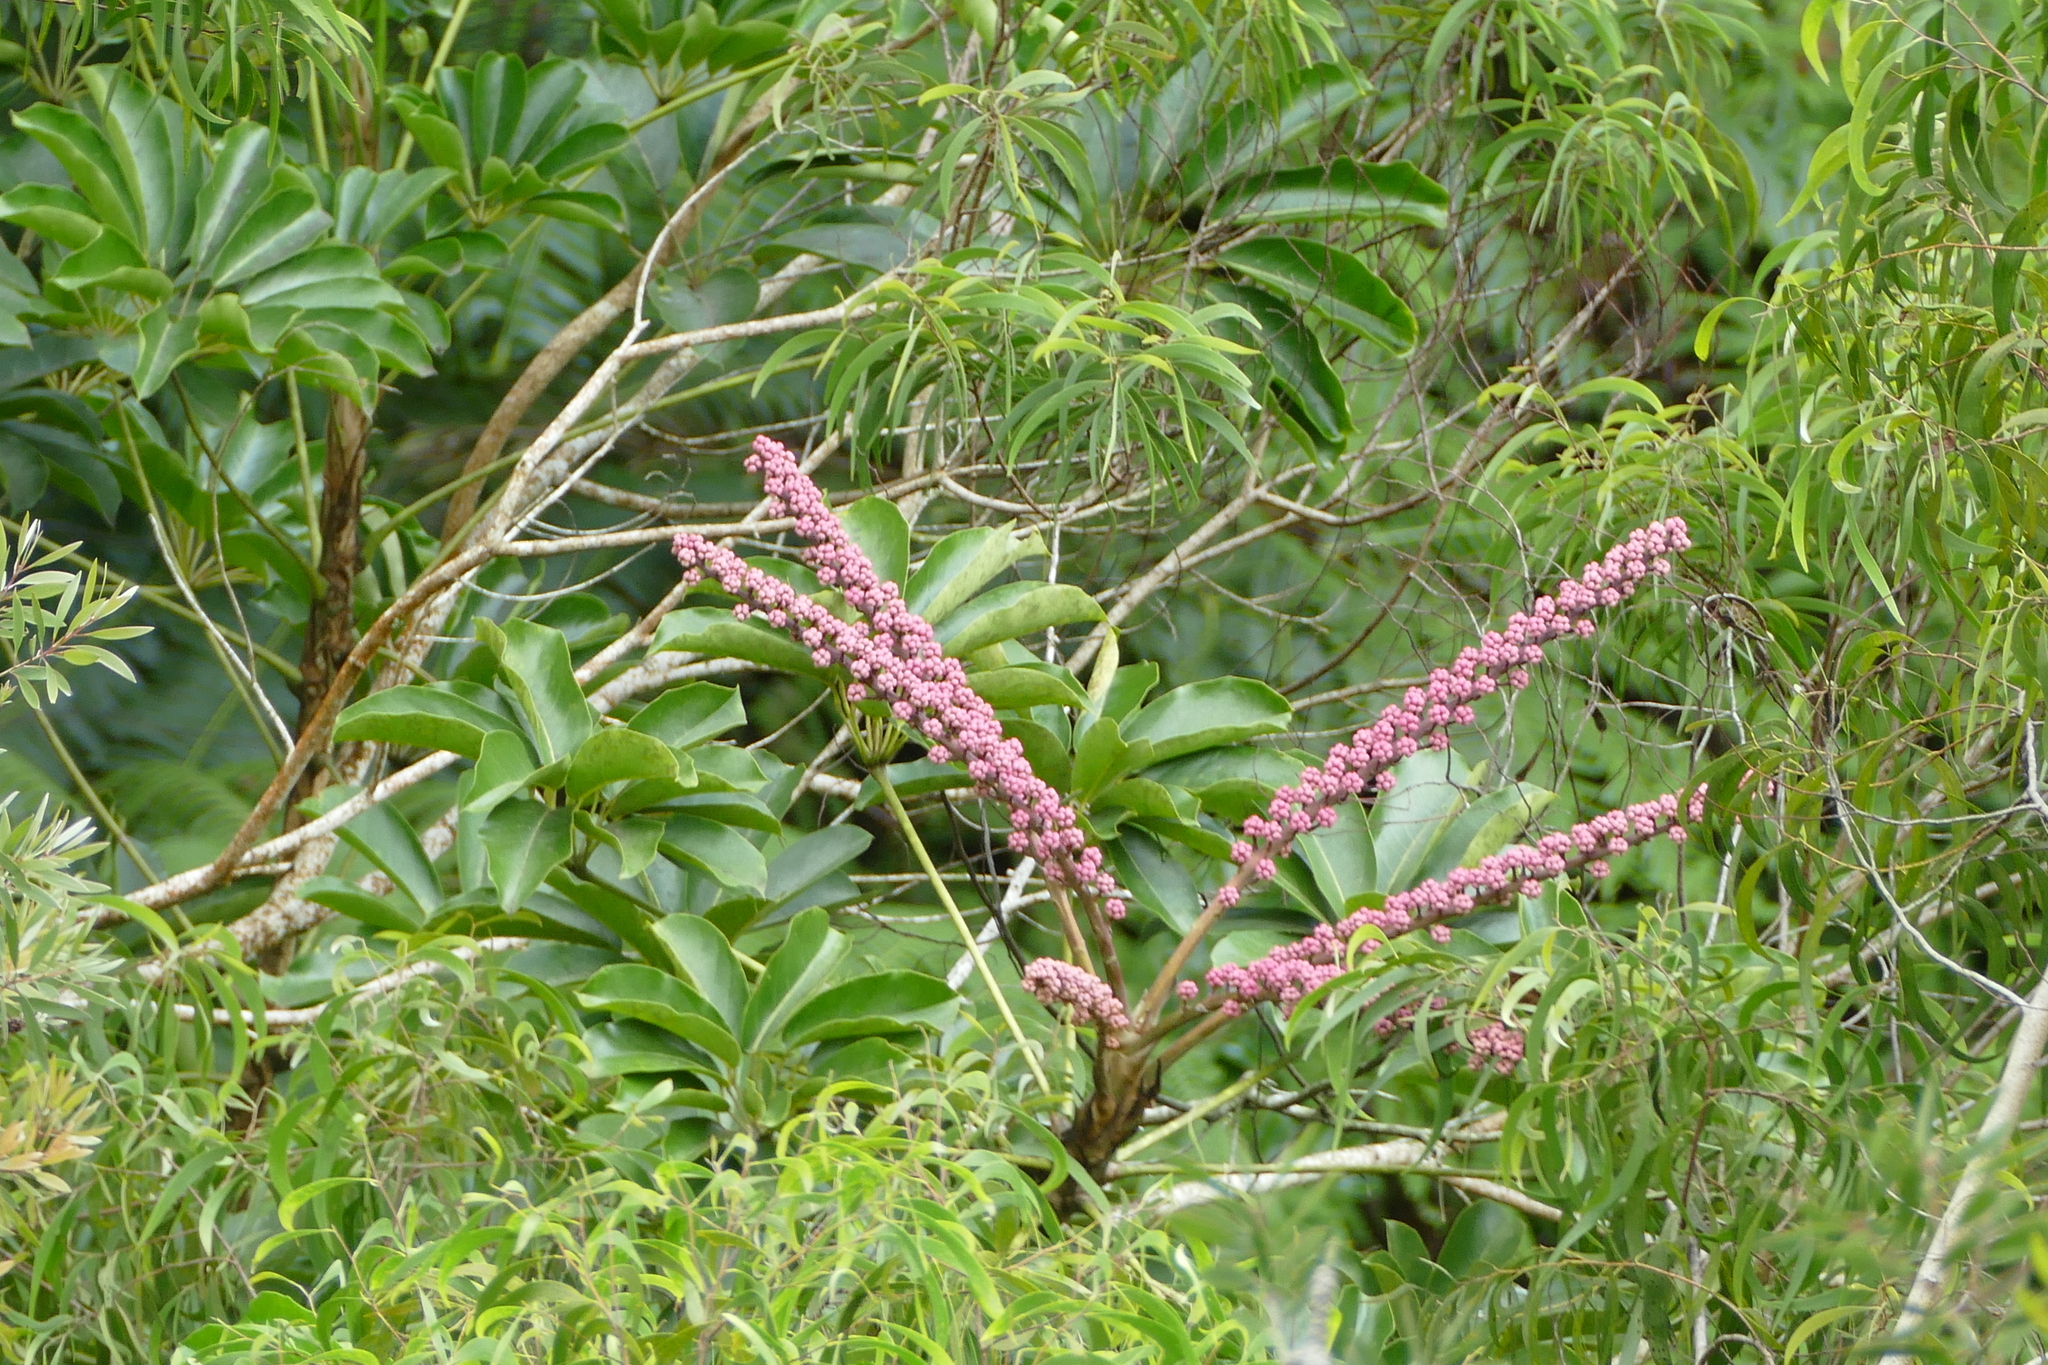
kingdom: Plantae
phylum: Tracheophyta
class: Magnoliopsida
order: Apiales
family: Araliaceae
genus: Heptapleurum
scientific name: Heptapleurum actinophyllum
